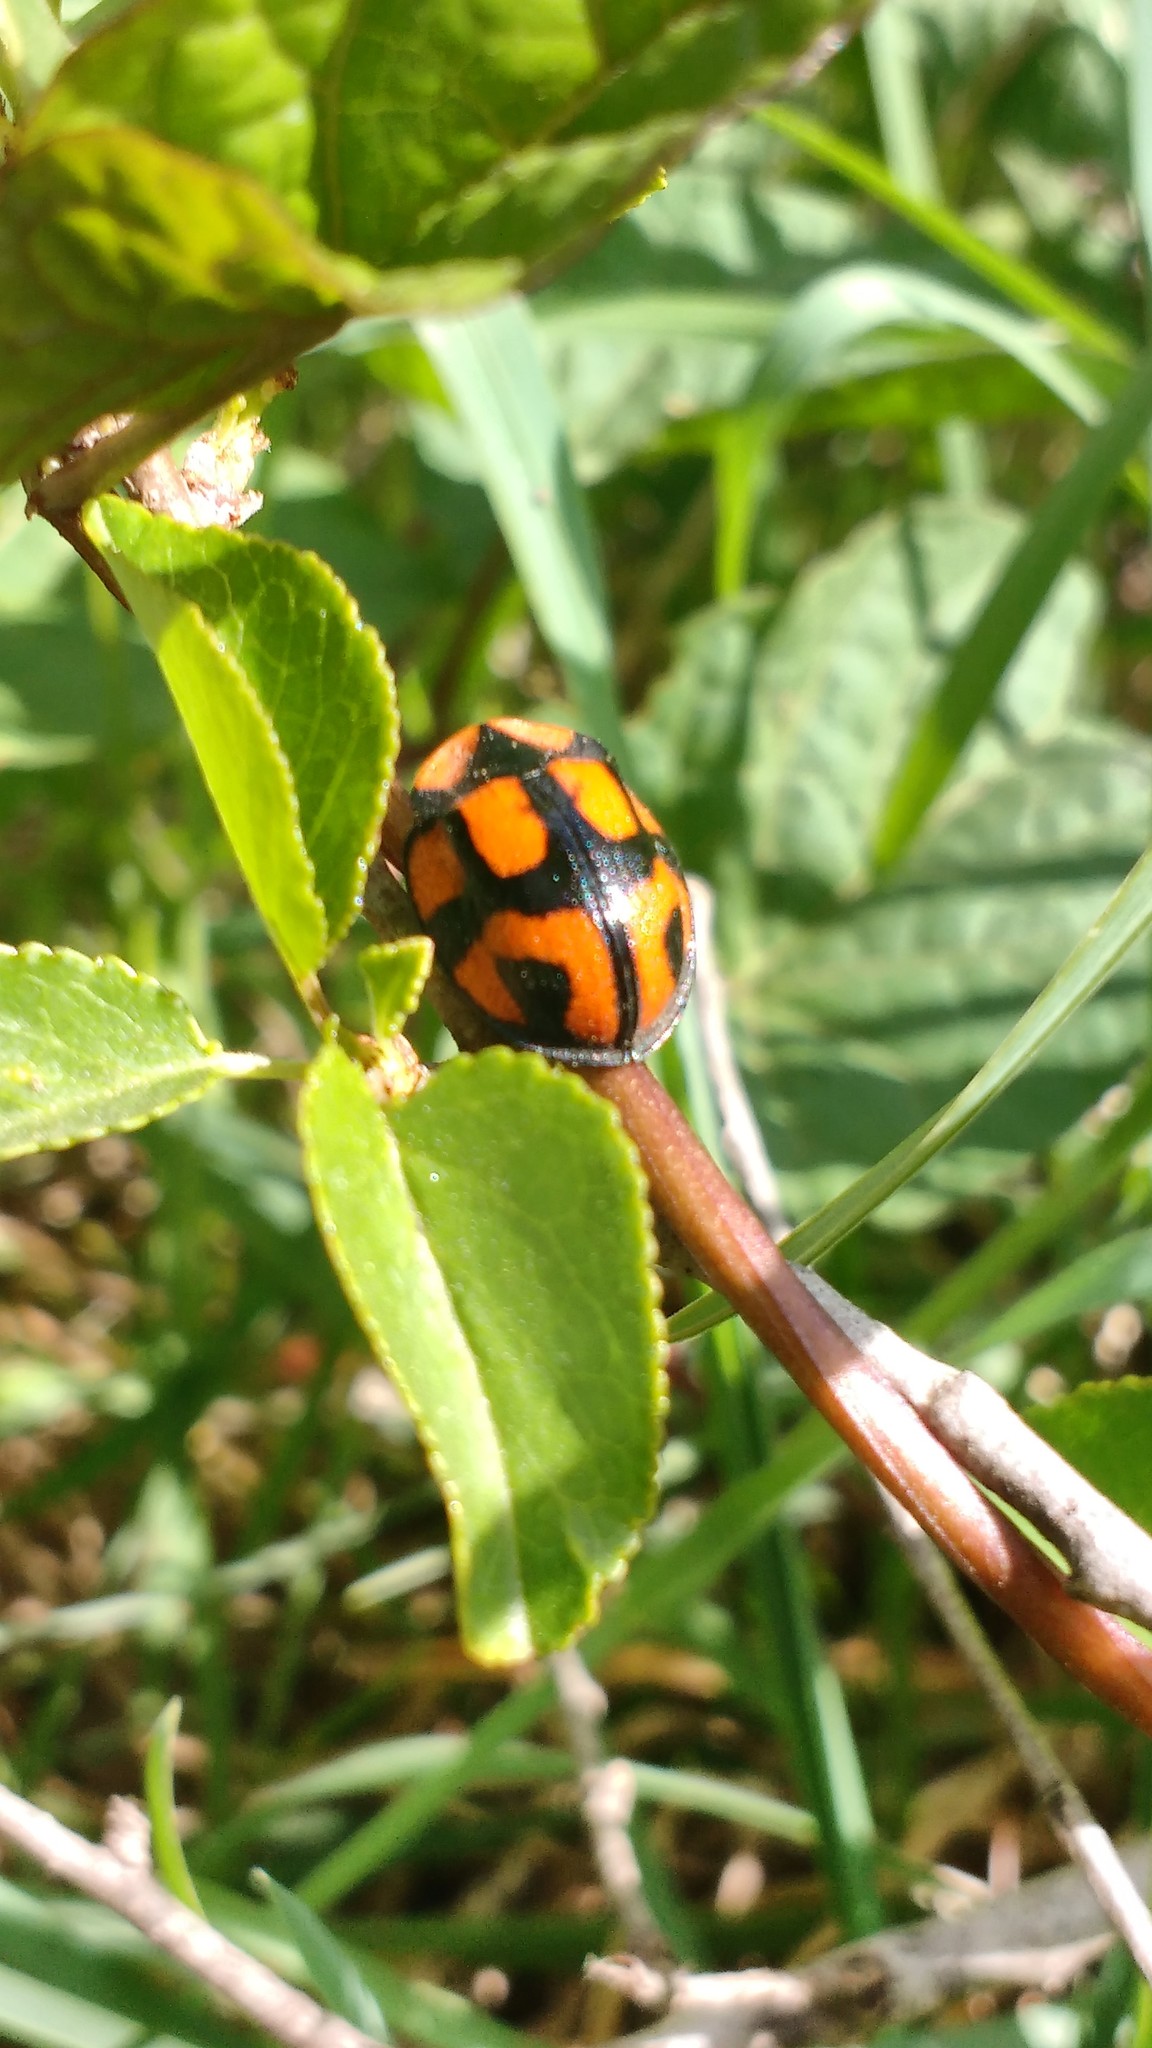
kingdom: Animalia
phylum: Arthropoda
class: Insecta
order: Coleoptera
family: Chrysomelidae
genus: Botanochara
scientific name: Botanochara angulata
